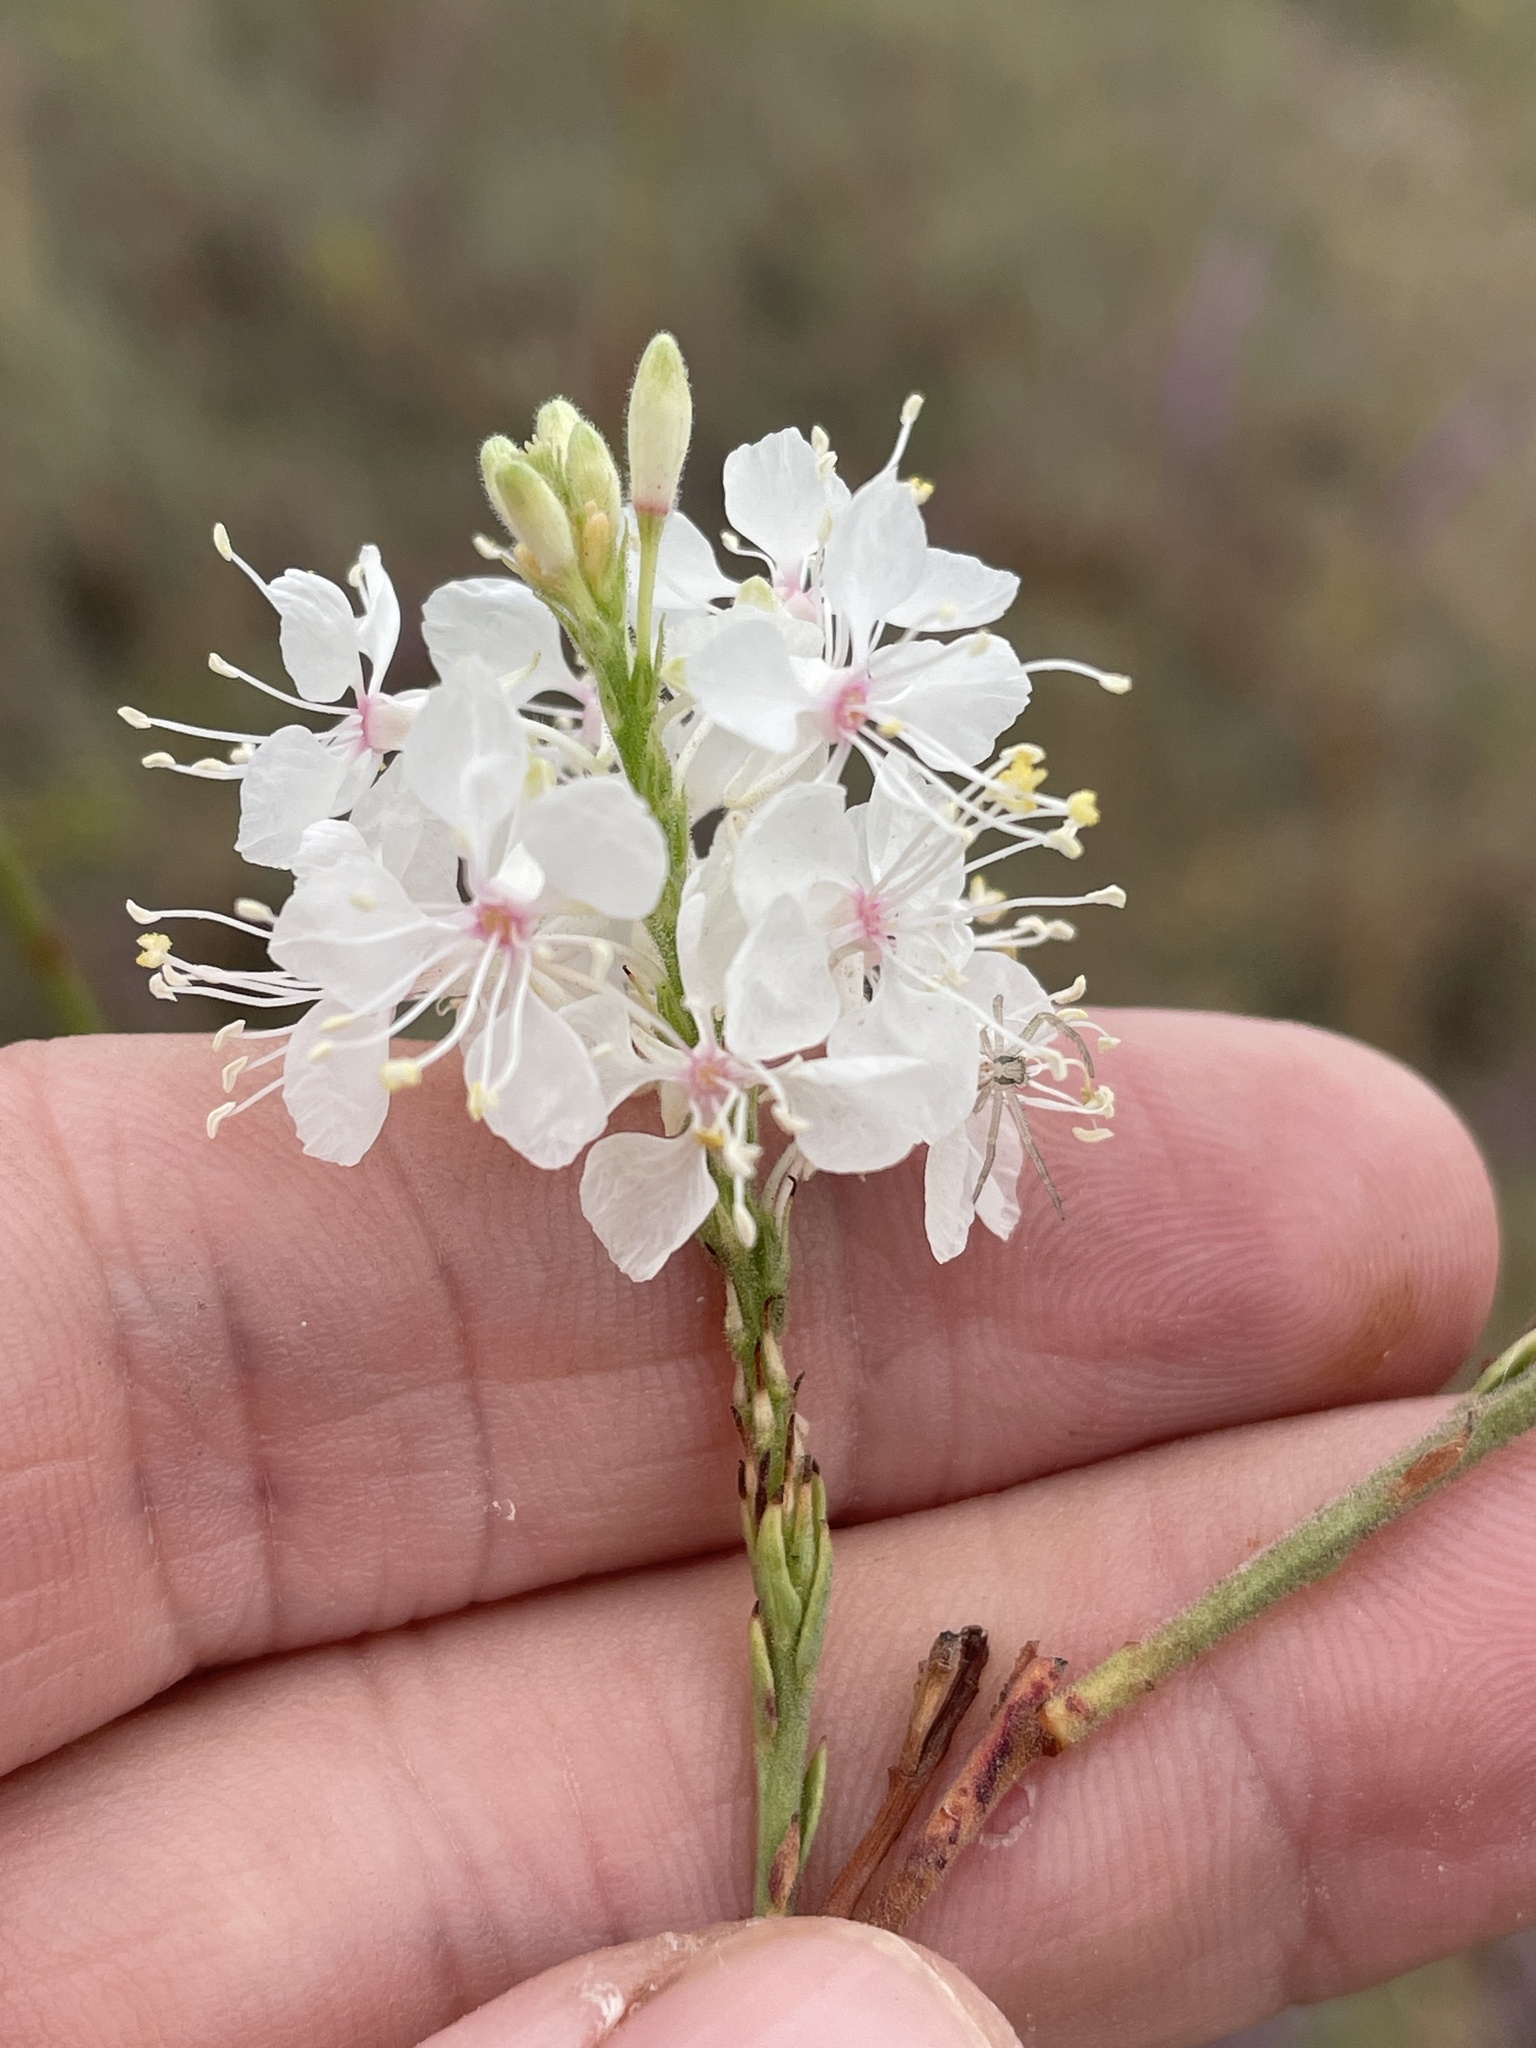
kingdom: Plantae
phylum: Tracheophyta
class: Magnoliopsida
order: Myrtales
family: Onagraceae
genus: Oenothera
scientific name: Oenothera glaucifolia
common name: False gaura
